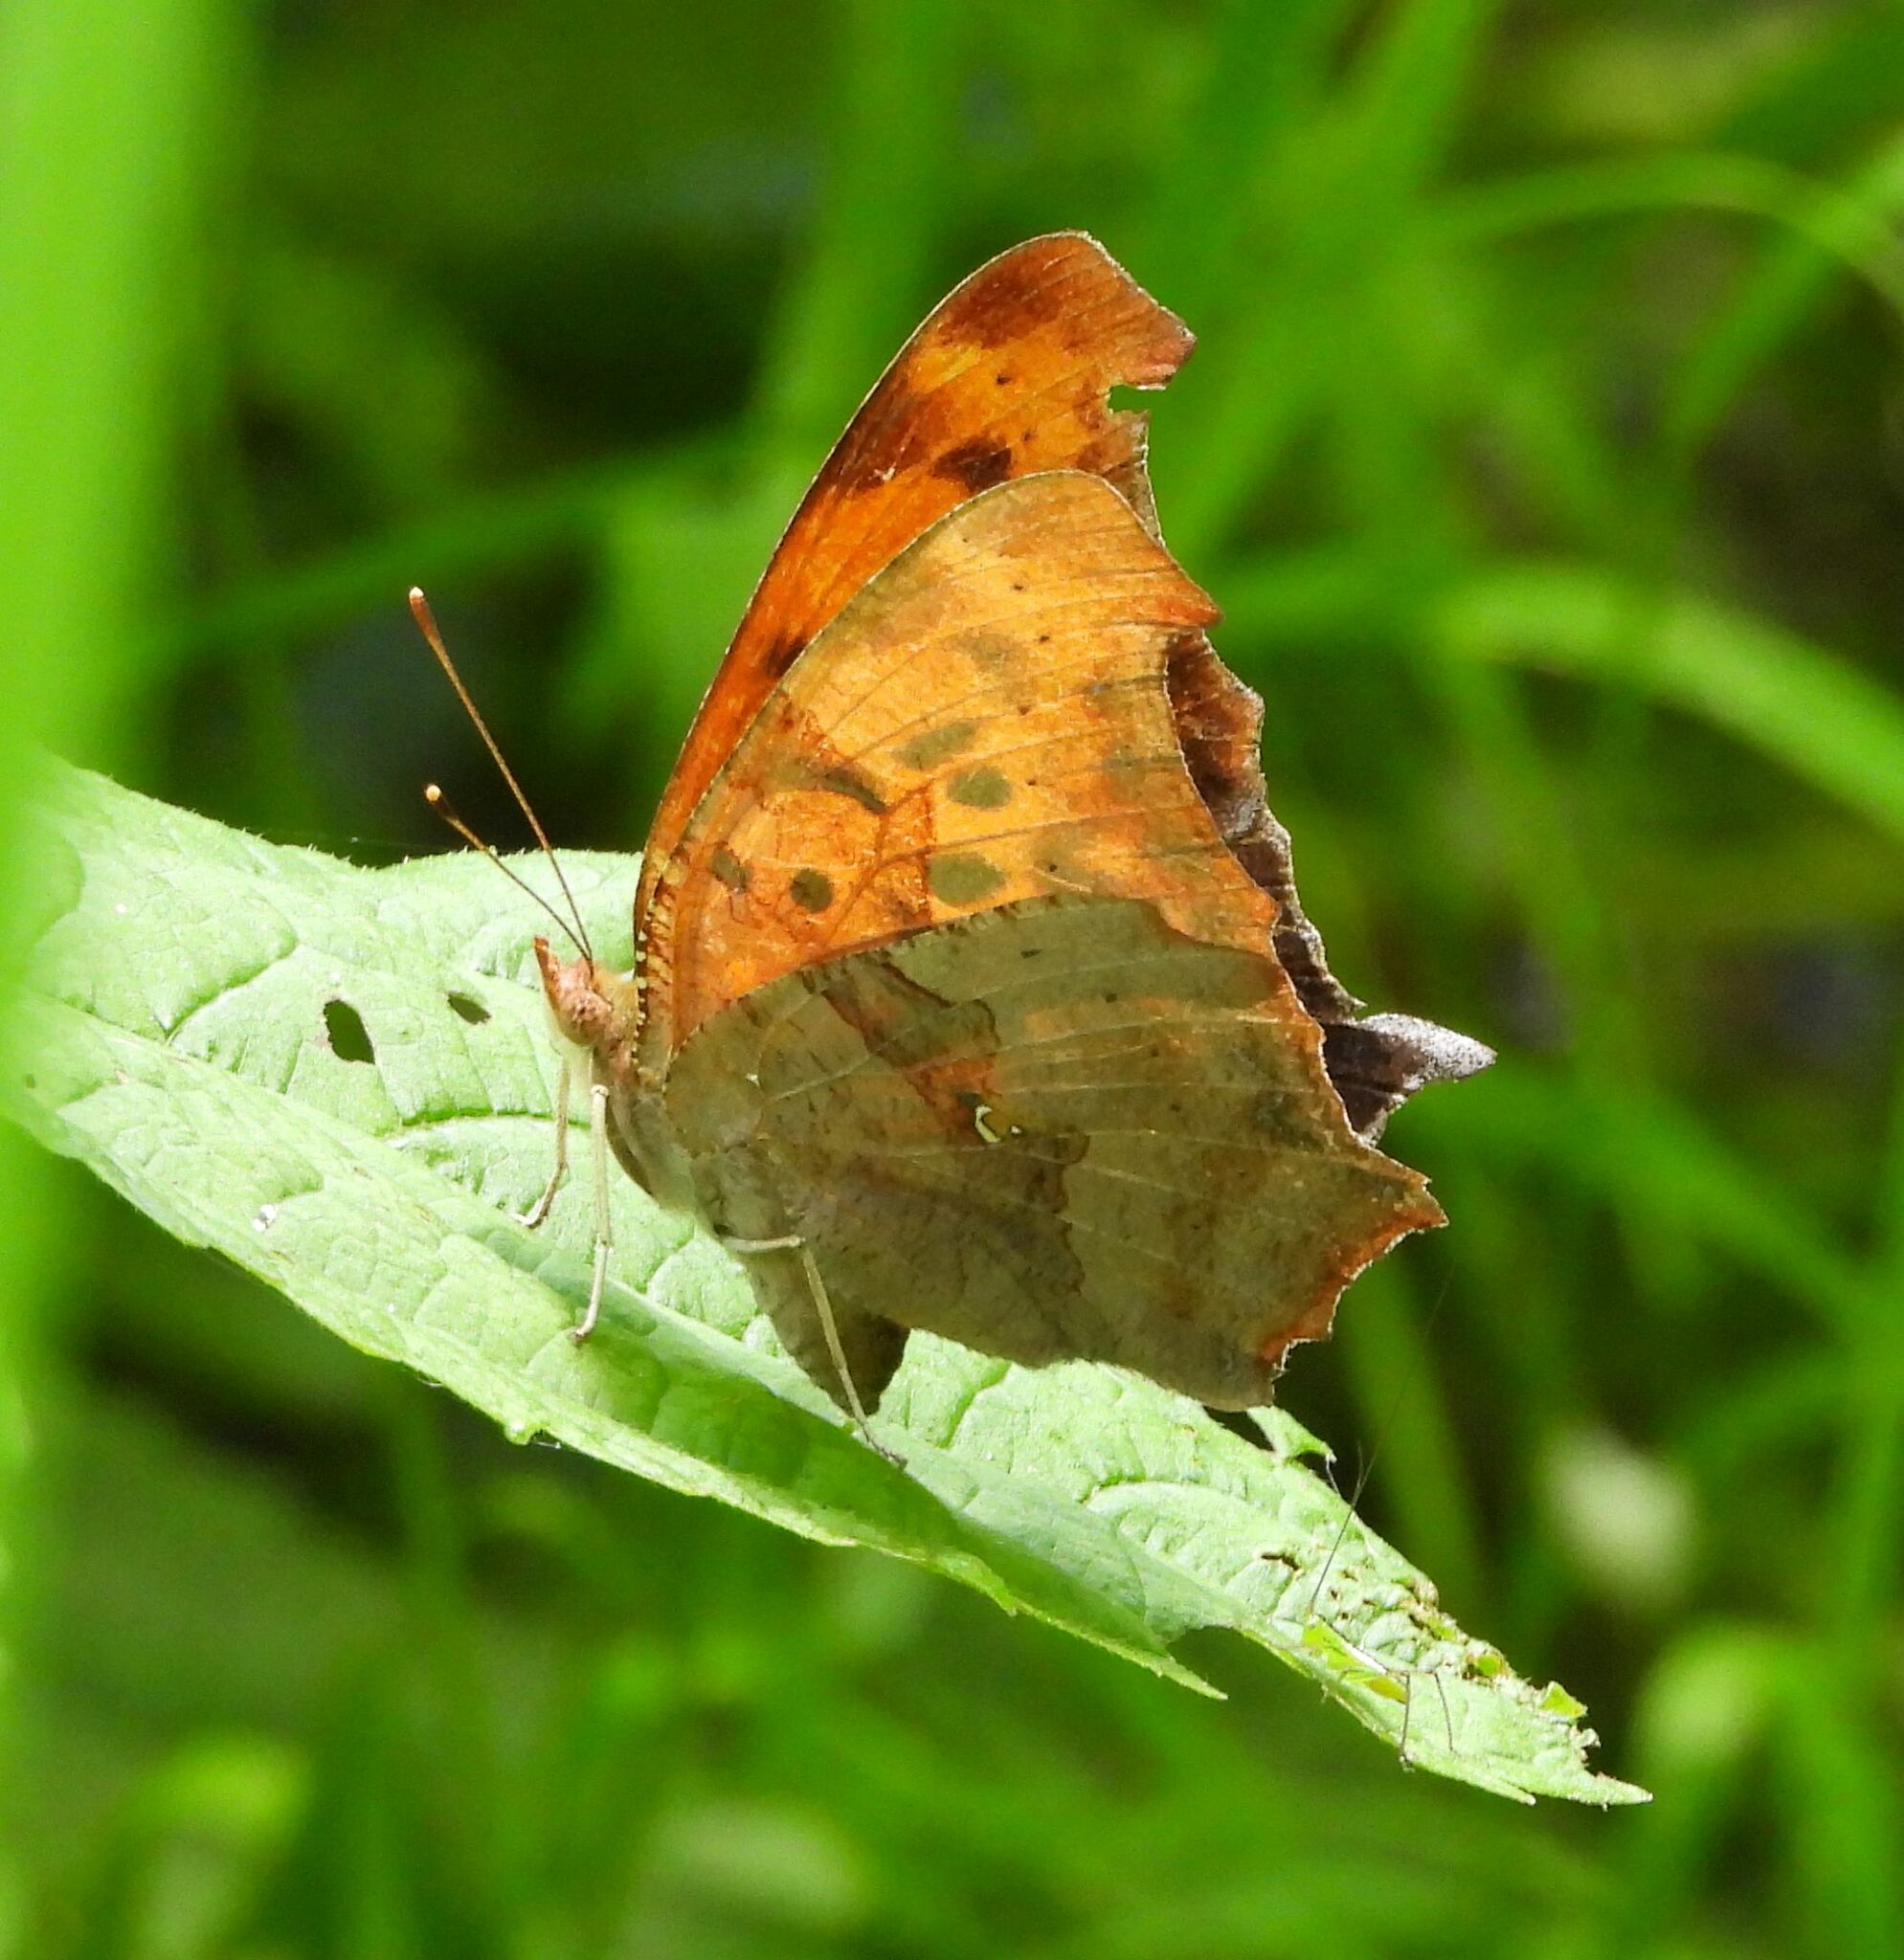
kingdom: Animalia
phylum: Arthropoda
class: Insecta
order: Lepidoptera
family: Nymphalidae
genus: Polygonia
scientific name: Polygonia interrogationis
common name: Question mark
